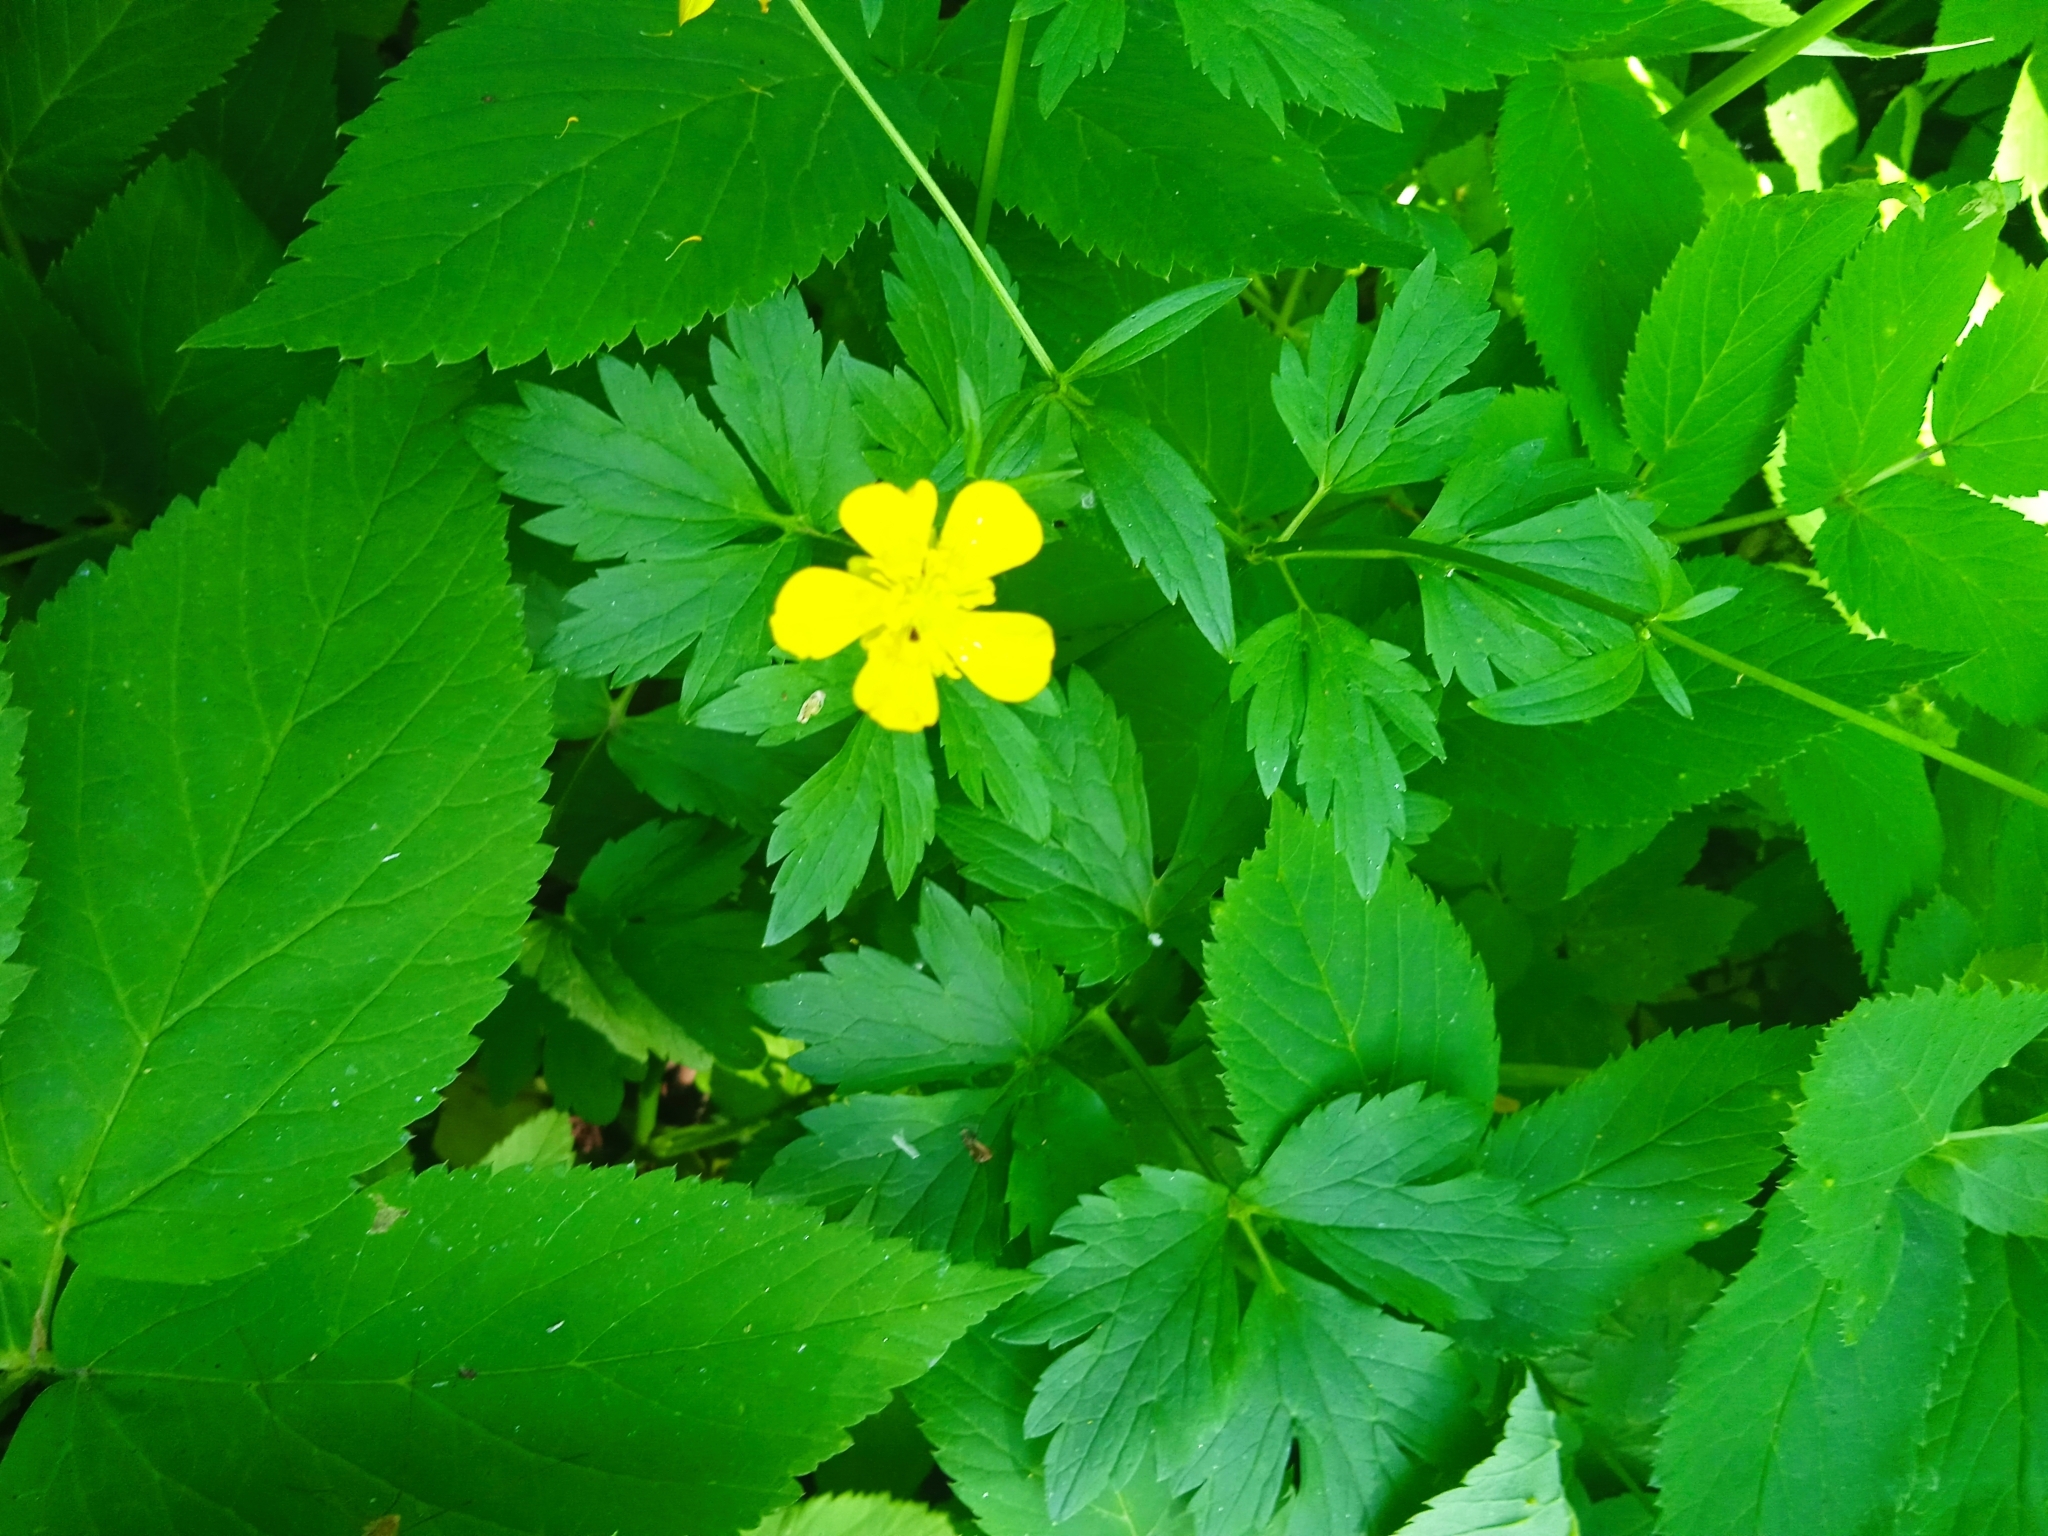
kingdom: Plantae
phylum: Tracheophyta
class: Magnoliopsida
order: Ranunculales
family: Ranunculaceae
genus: Ranunculus
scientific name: Ranunculus repens
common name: Creeping buttercup
